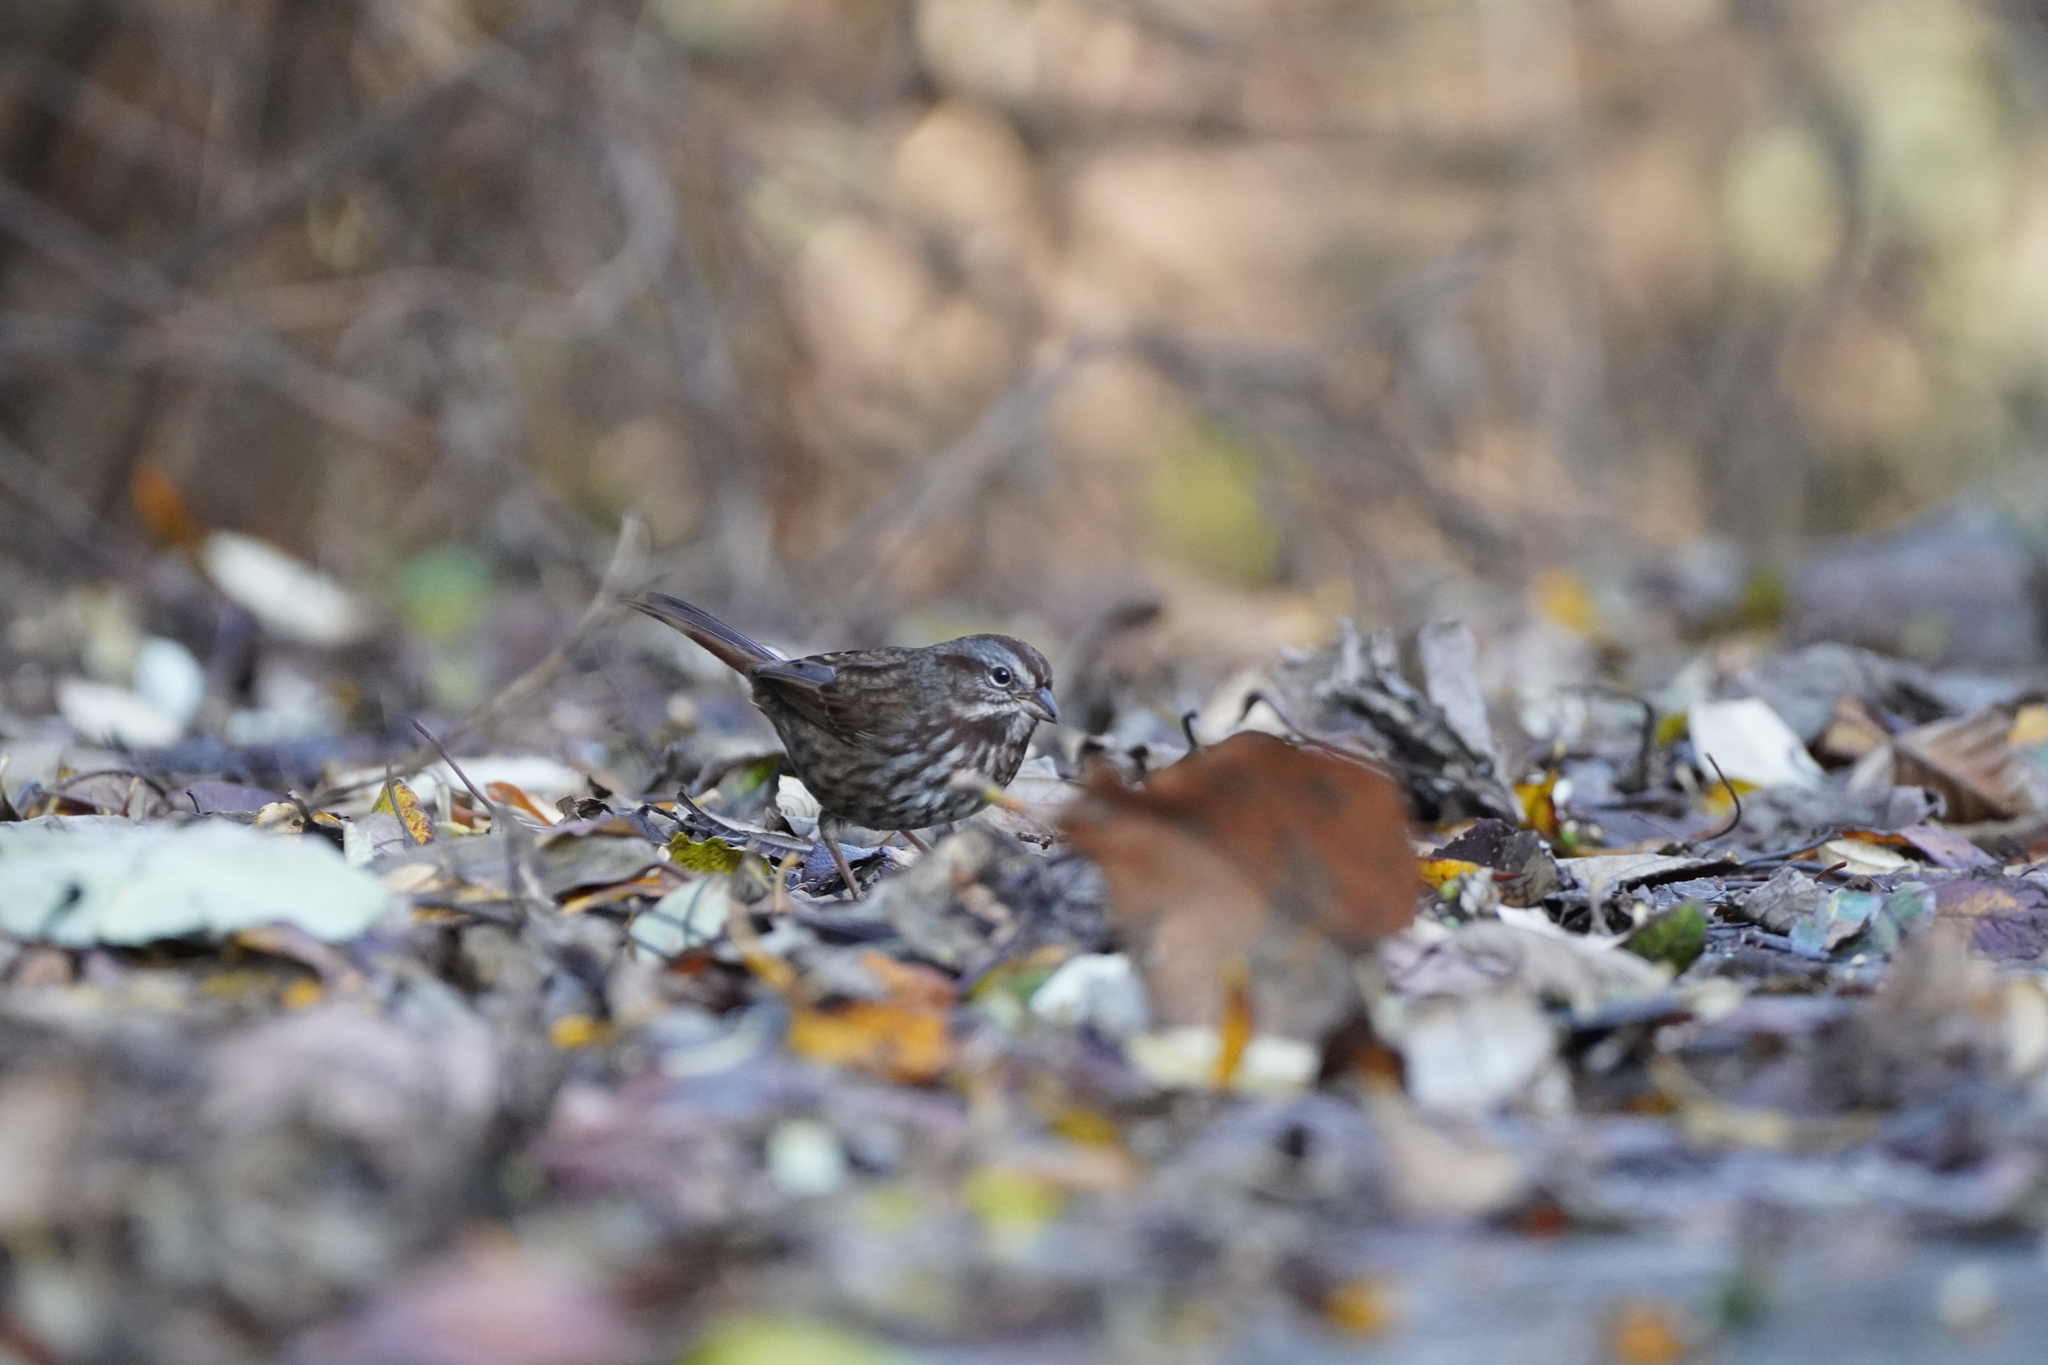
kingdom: Animalia
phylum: Chordata
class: Aves
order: Passeriformes
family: Passerellidae
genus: Melospiza
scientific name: Melospiza melodia
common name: Song sparrow
